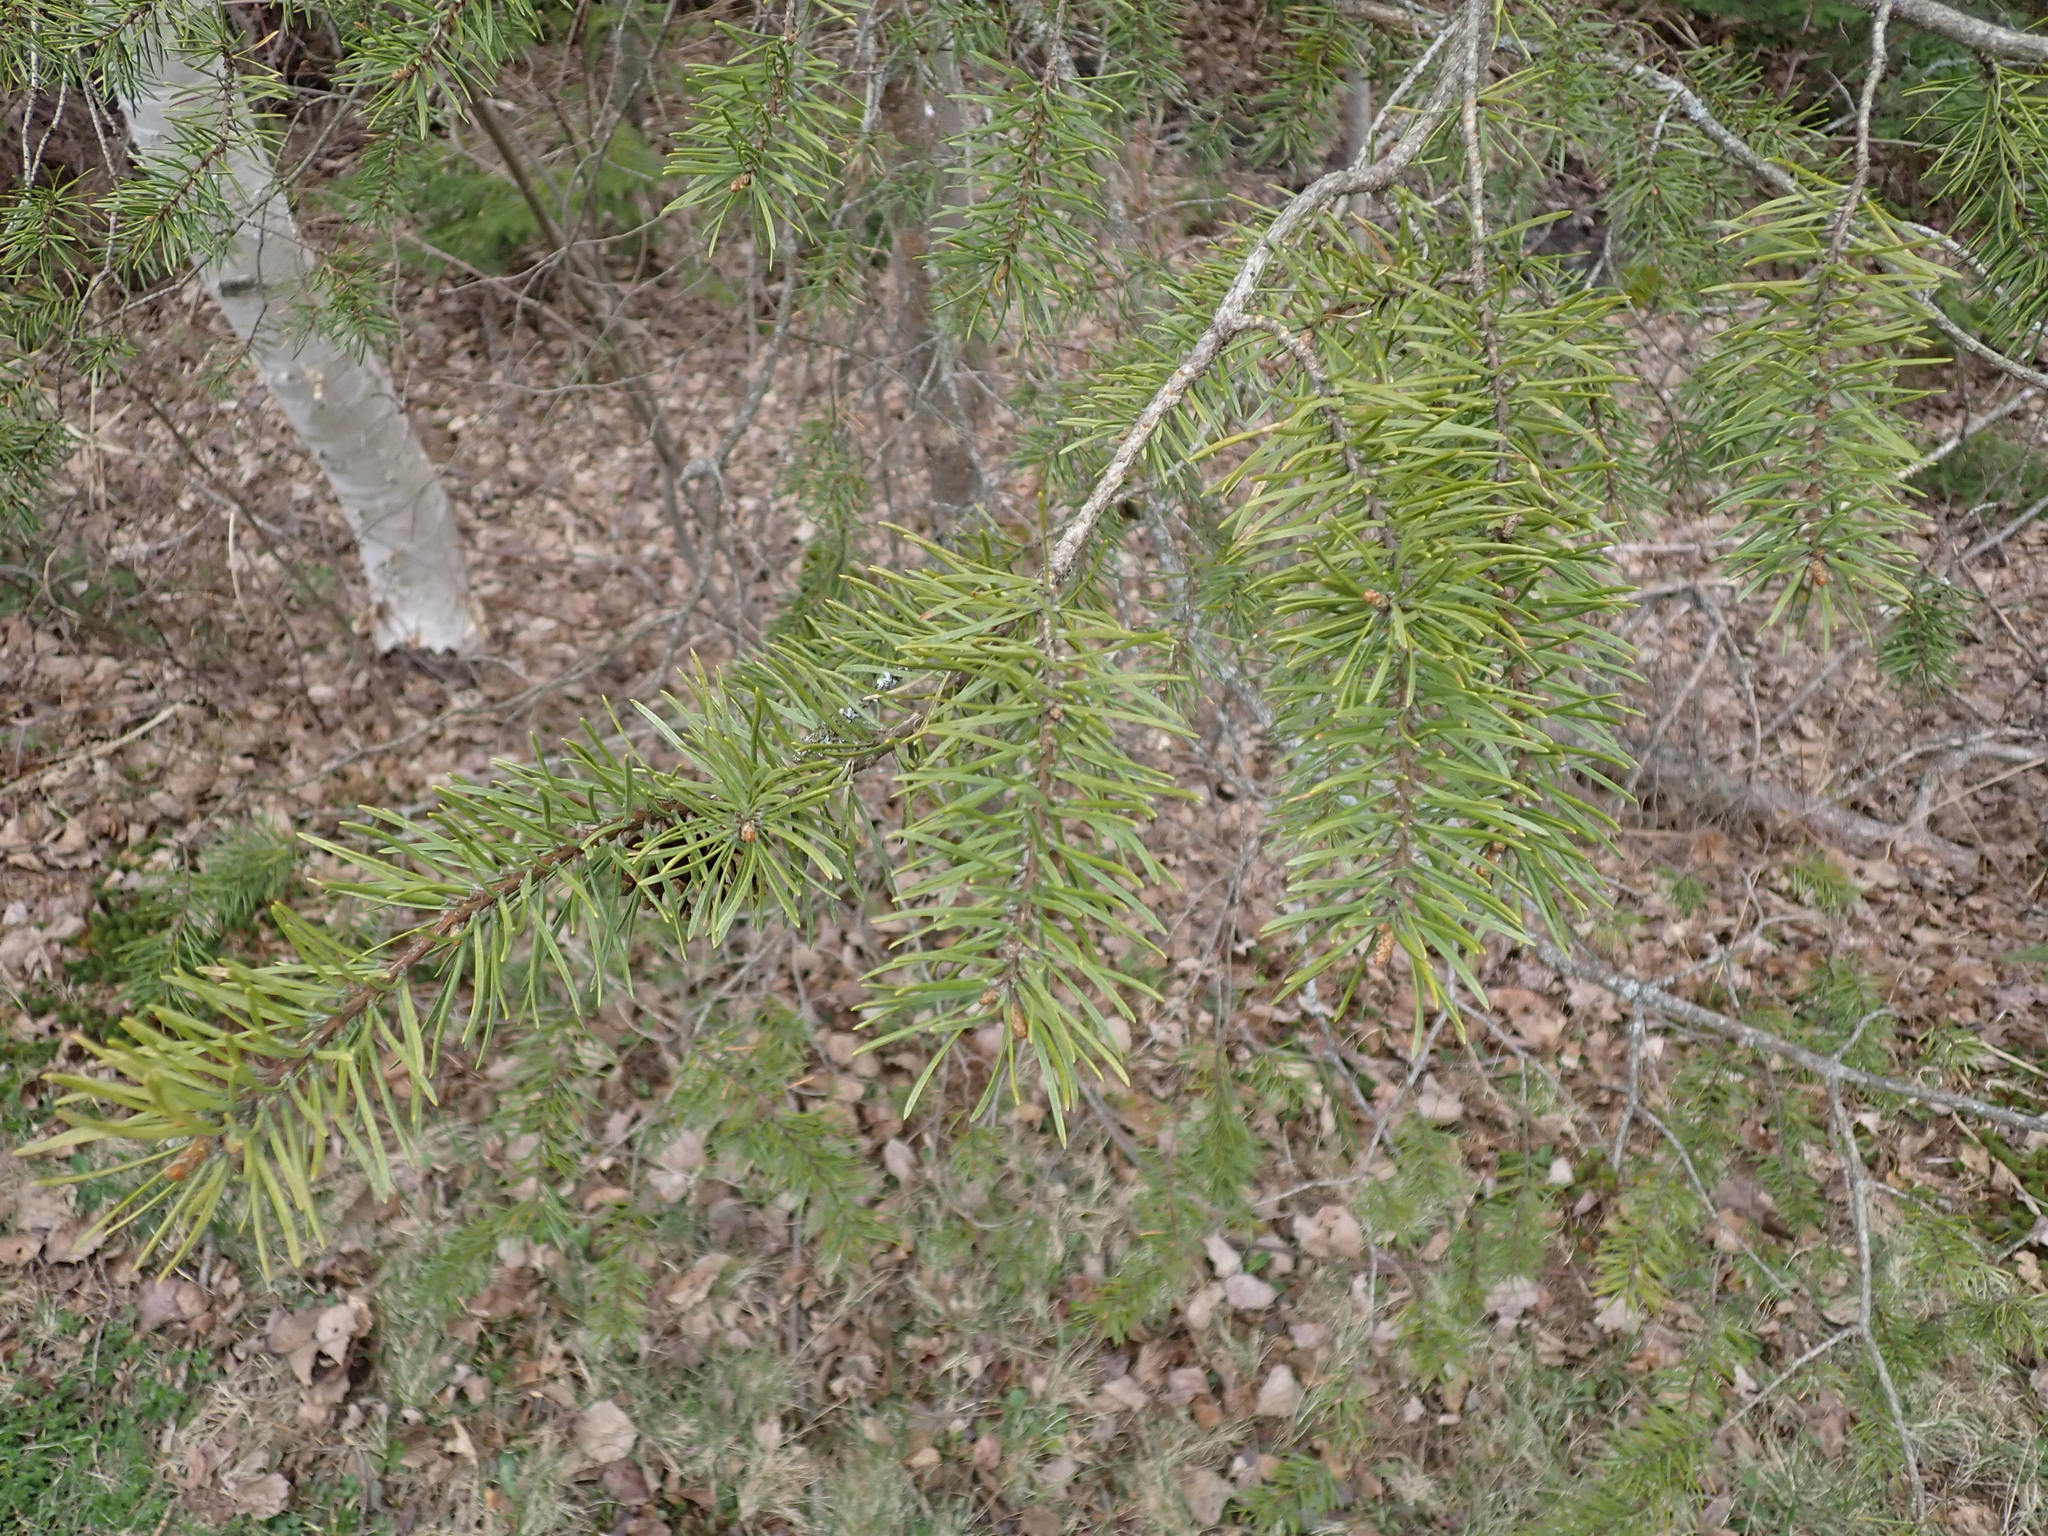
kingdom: Plantae
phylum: Tracheophyta
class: Pinopsida
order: Pinales
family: Pinaceae
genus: Pinus
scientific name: Pinus banksiana
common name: Jack pine
